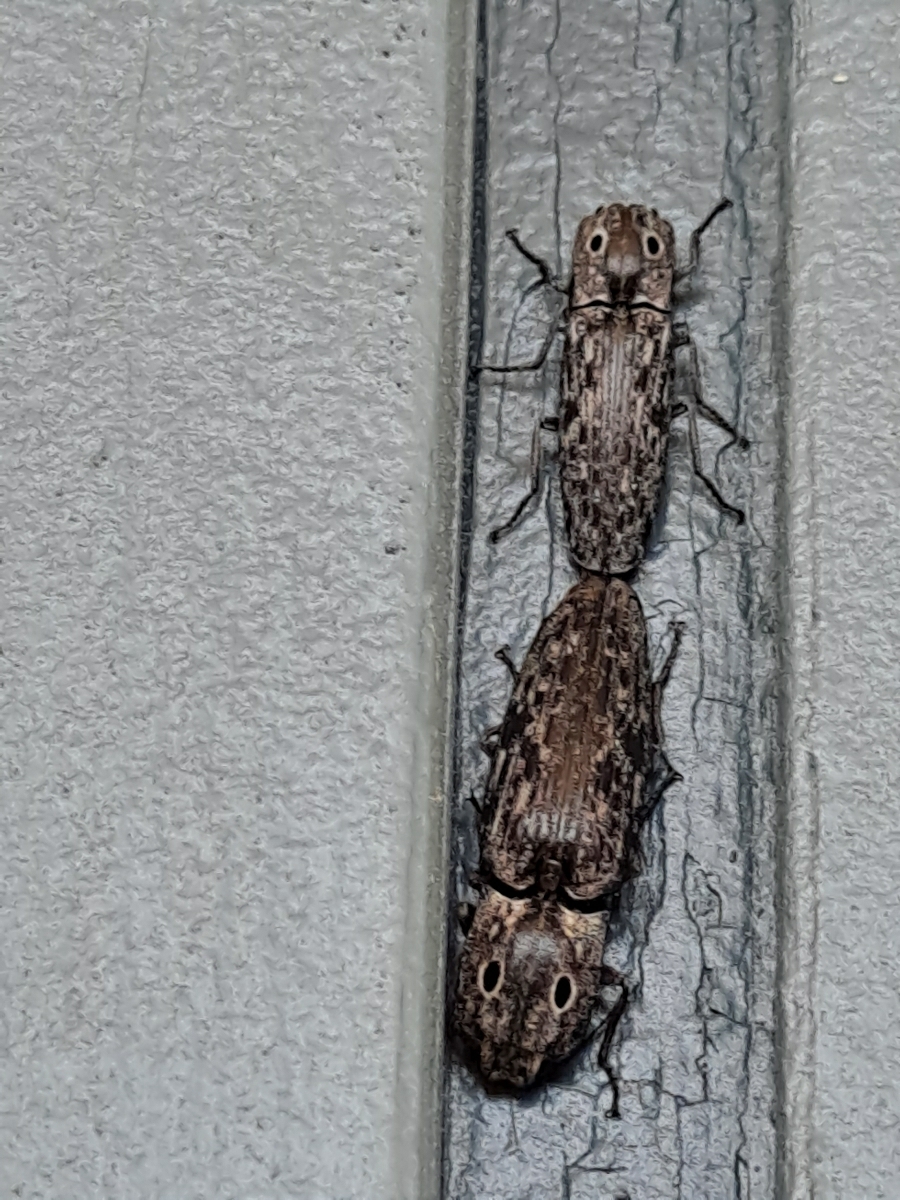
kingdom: Animalia
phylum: Arthropoda
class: Insecta
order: Coleoptera
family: Elateridae
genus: Alaus
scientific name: Alaus myops
